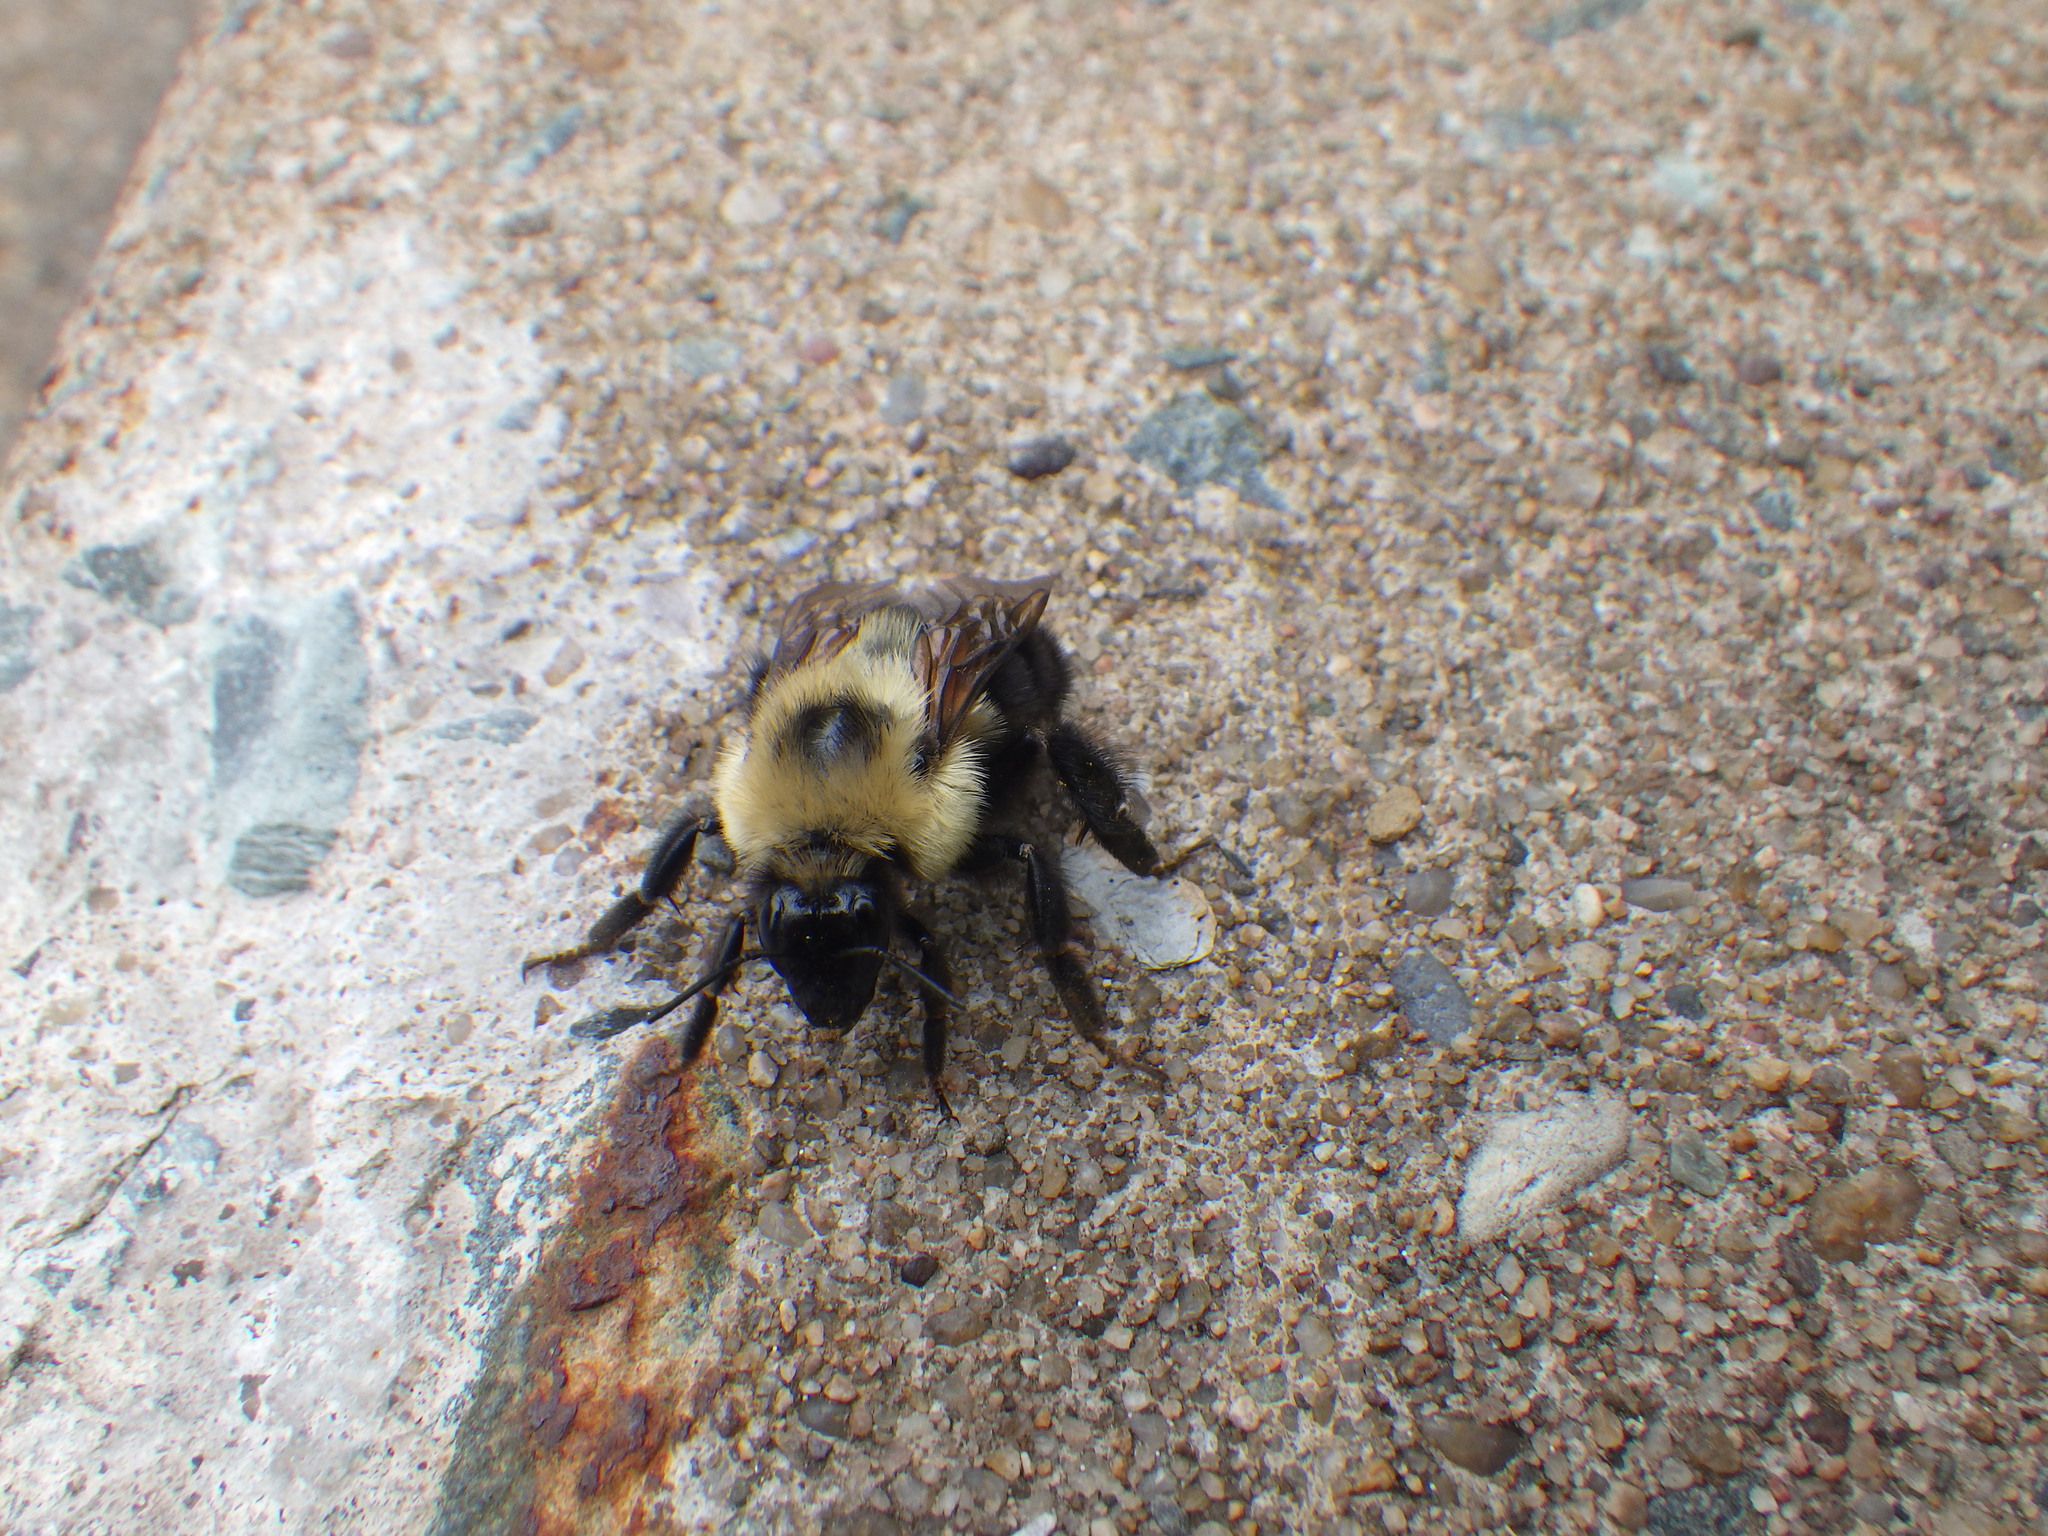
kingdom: Animalia
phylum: Arthropoda
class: Insecta
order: Hymenoptera
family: Apidae
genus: Bombus
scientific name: Bombus bimaculatus
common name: Two-spotted bumble bee
